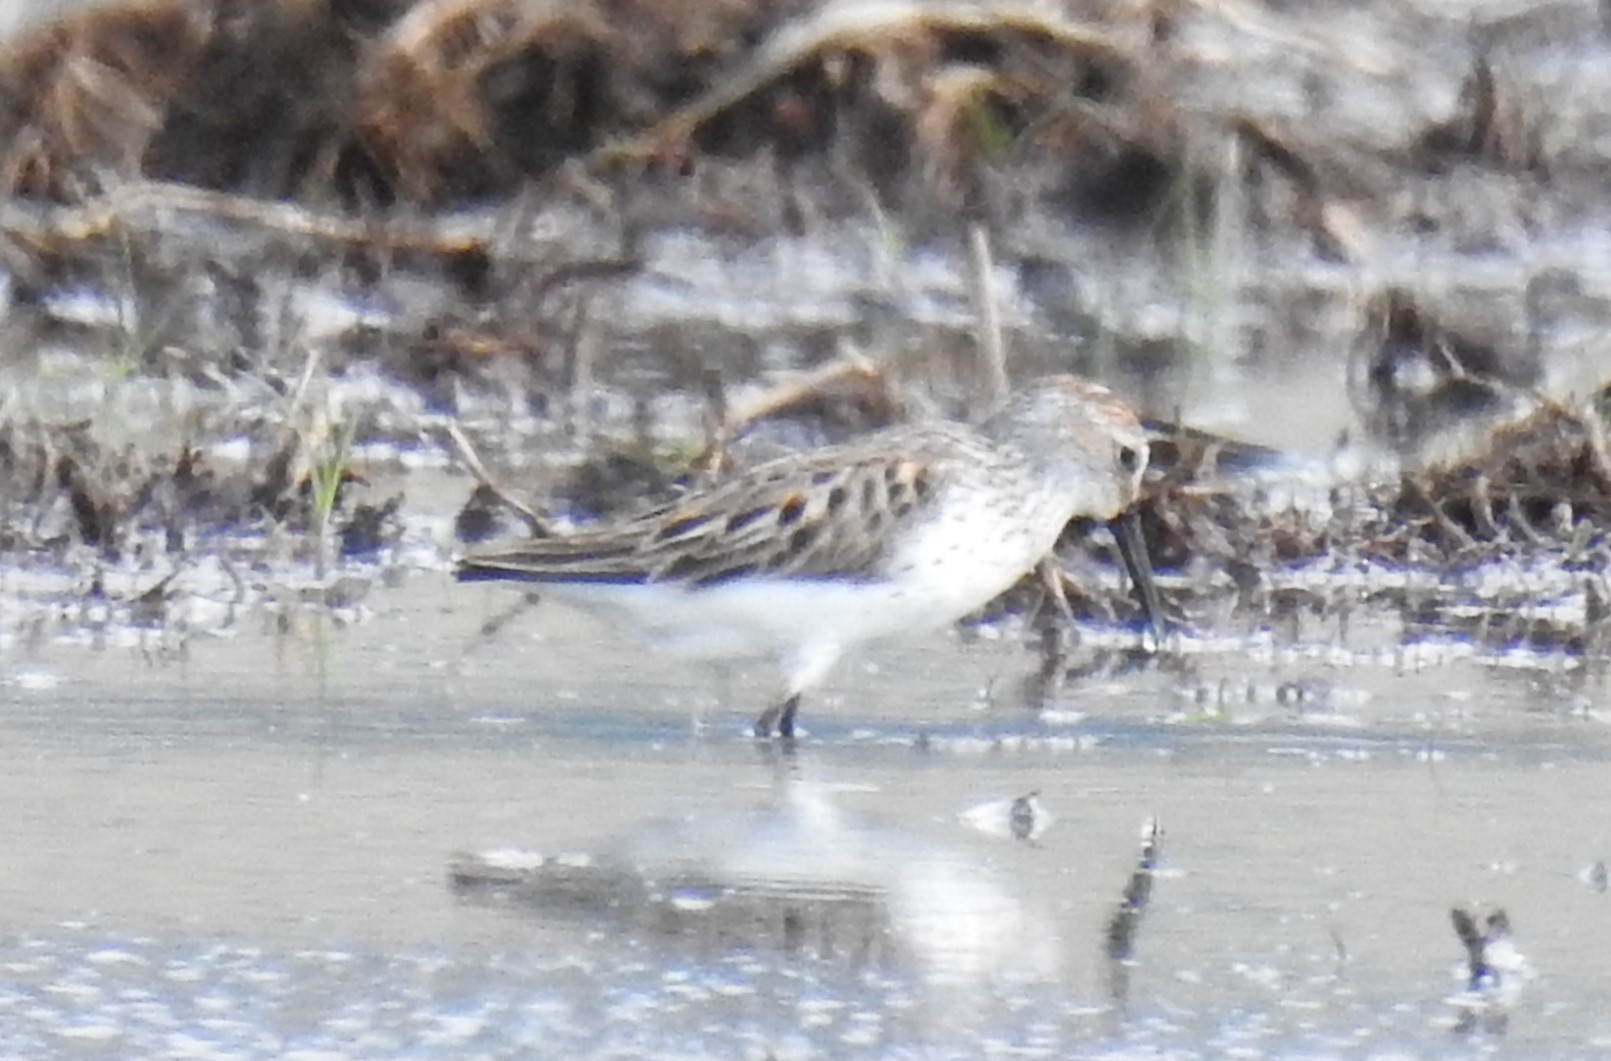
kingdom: Animalia
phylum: Chordata
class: Aves
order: Charadriiformes
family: Scolopacidae
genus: Calidris
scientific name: Calidris mauri
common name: Western sandpiper
